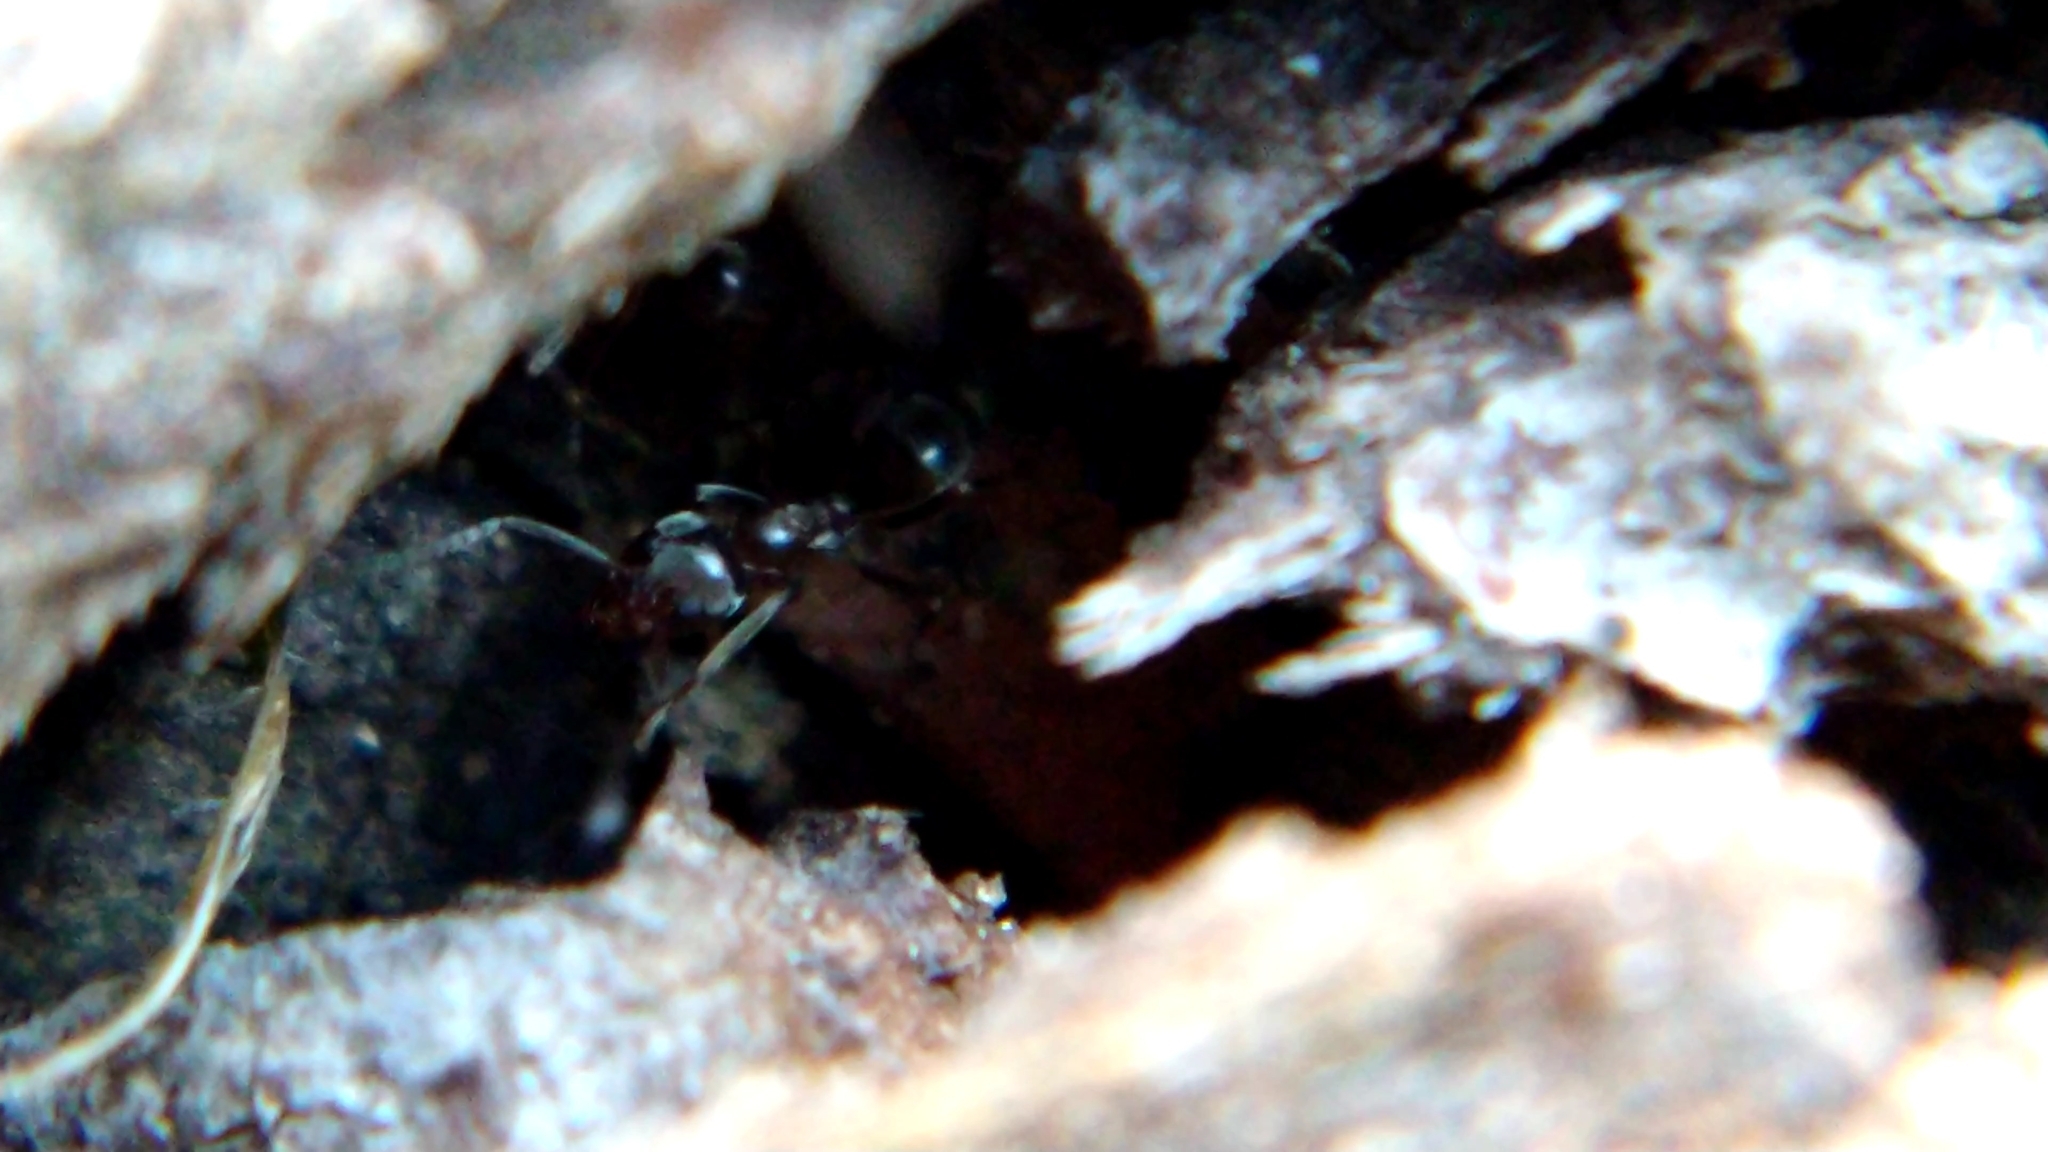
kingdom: Animalia
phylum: Arthropoda
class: Insecta
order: Hymenoptera
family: Formicidae
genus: Linepithema
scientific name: Linepithema humile
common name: Argentine ant
